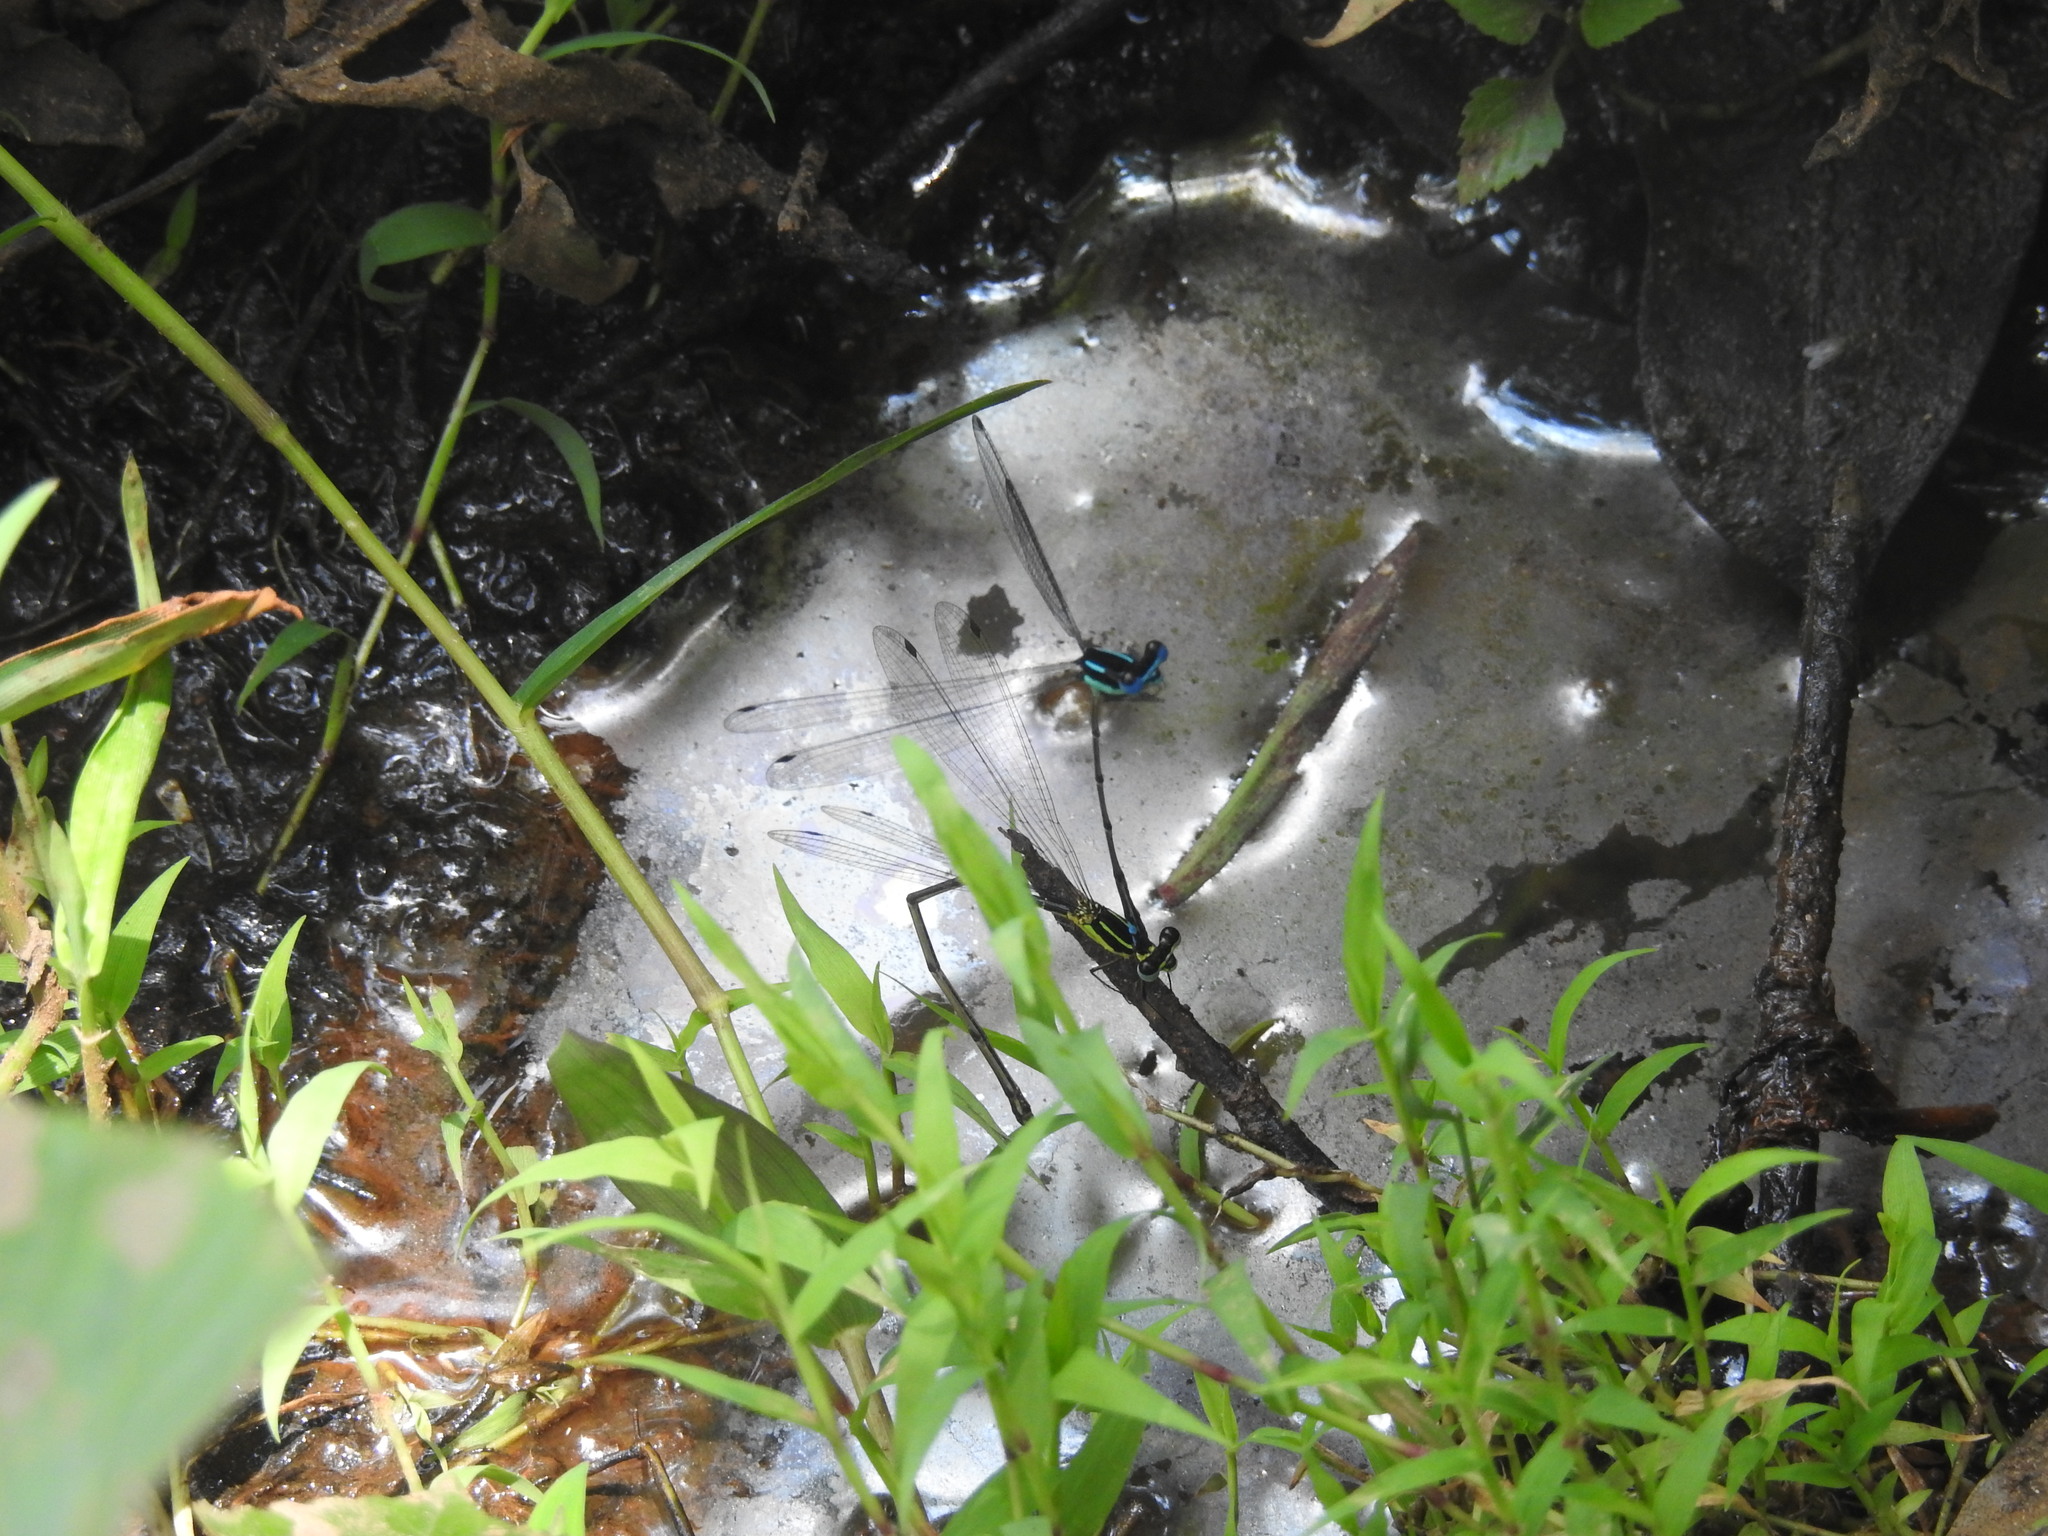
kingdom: Animalia
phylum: Arthropoda
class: Insecta
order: Odonata
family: Platycnemididae
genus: Caconeura
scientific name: Caconeura ramburi
